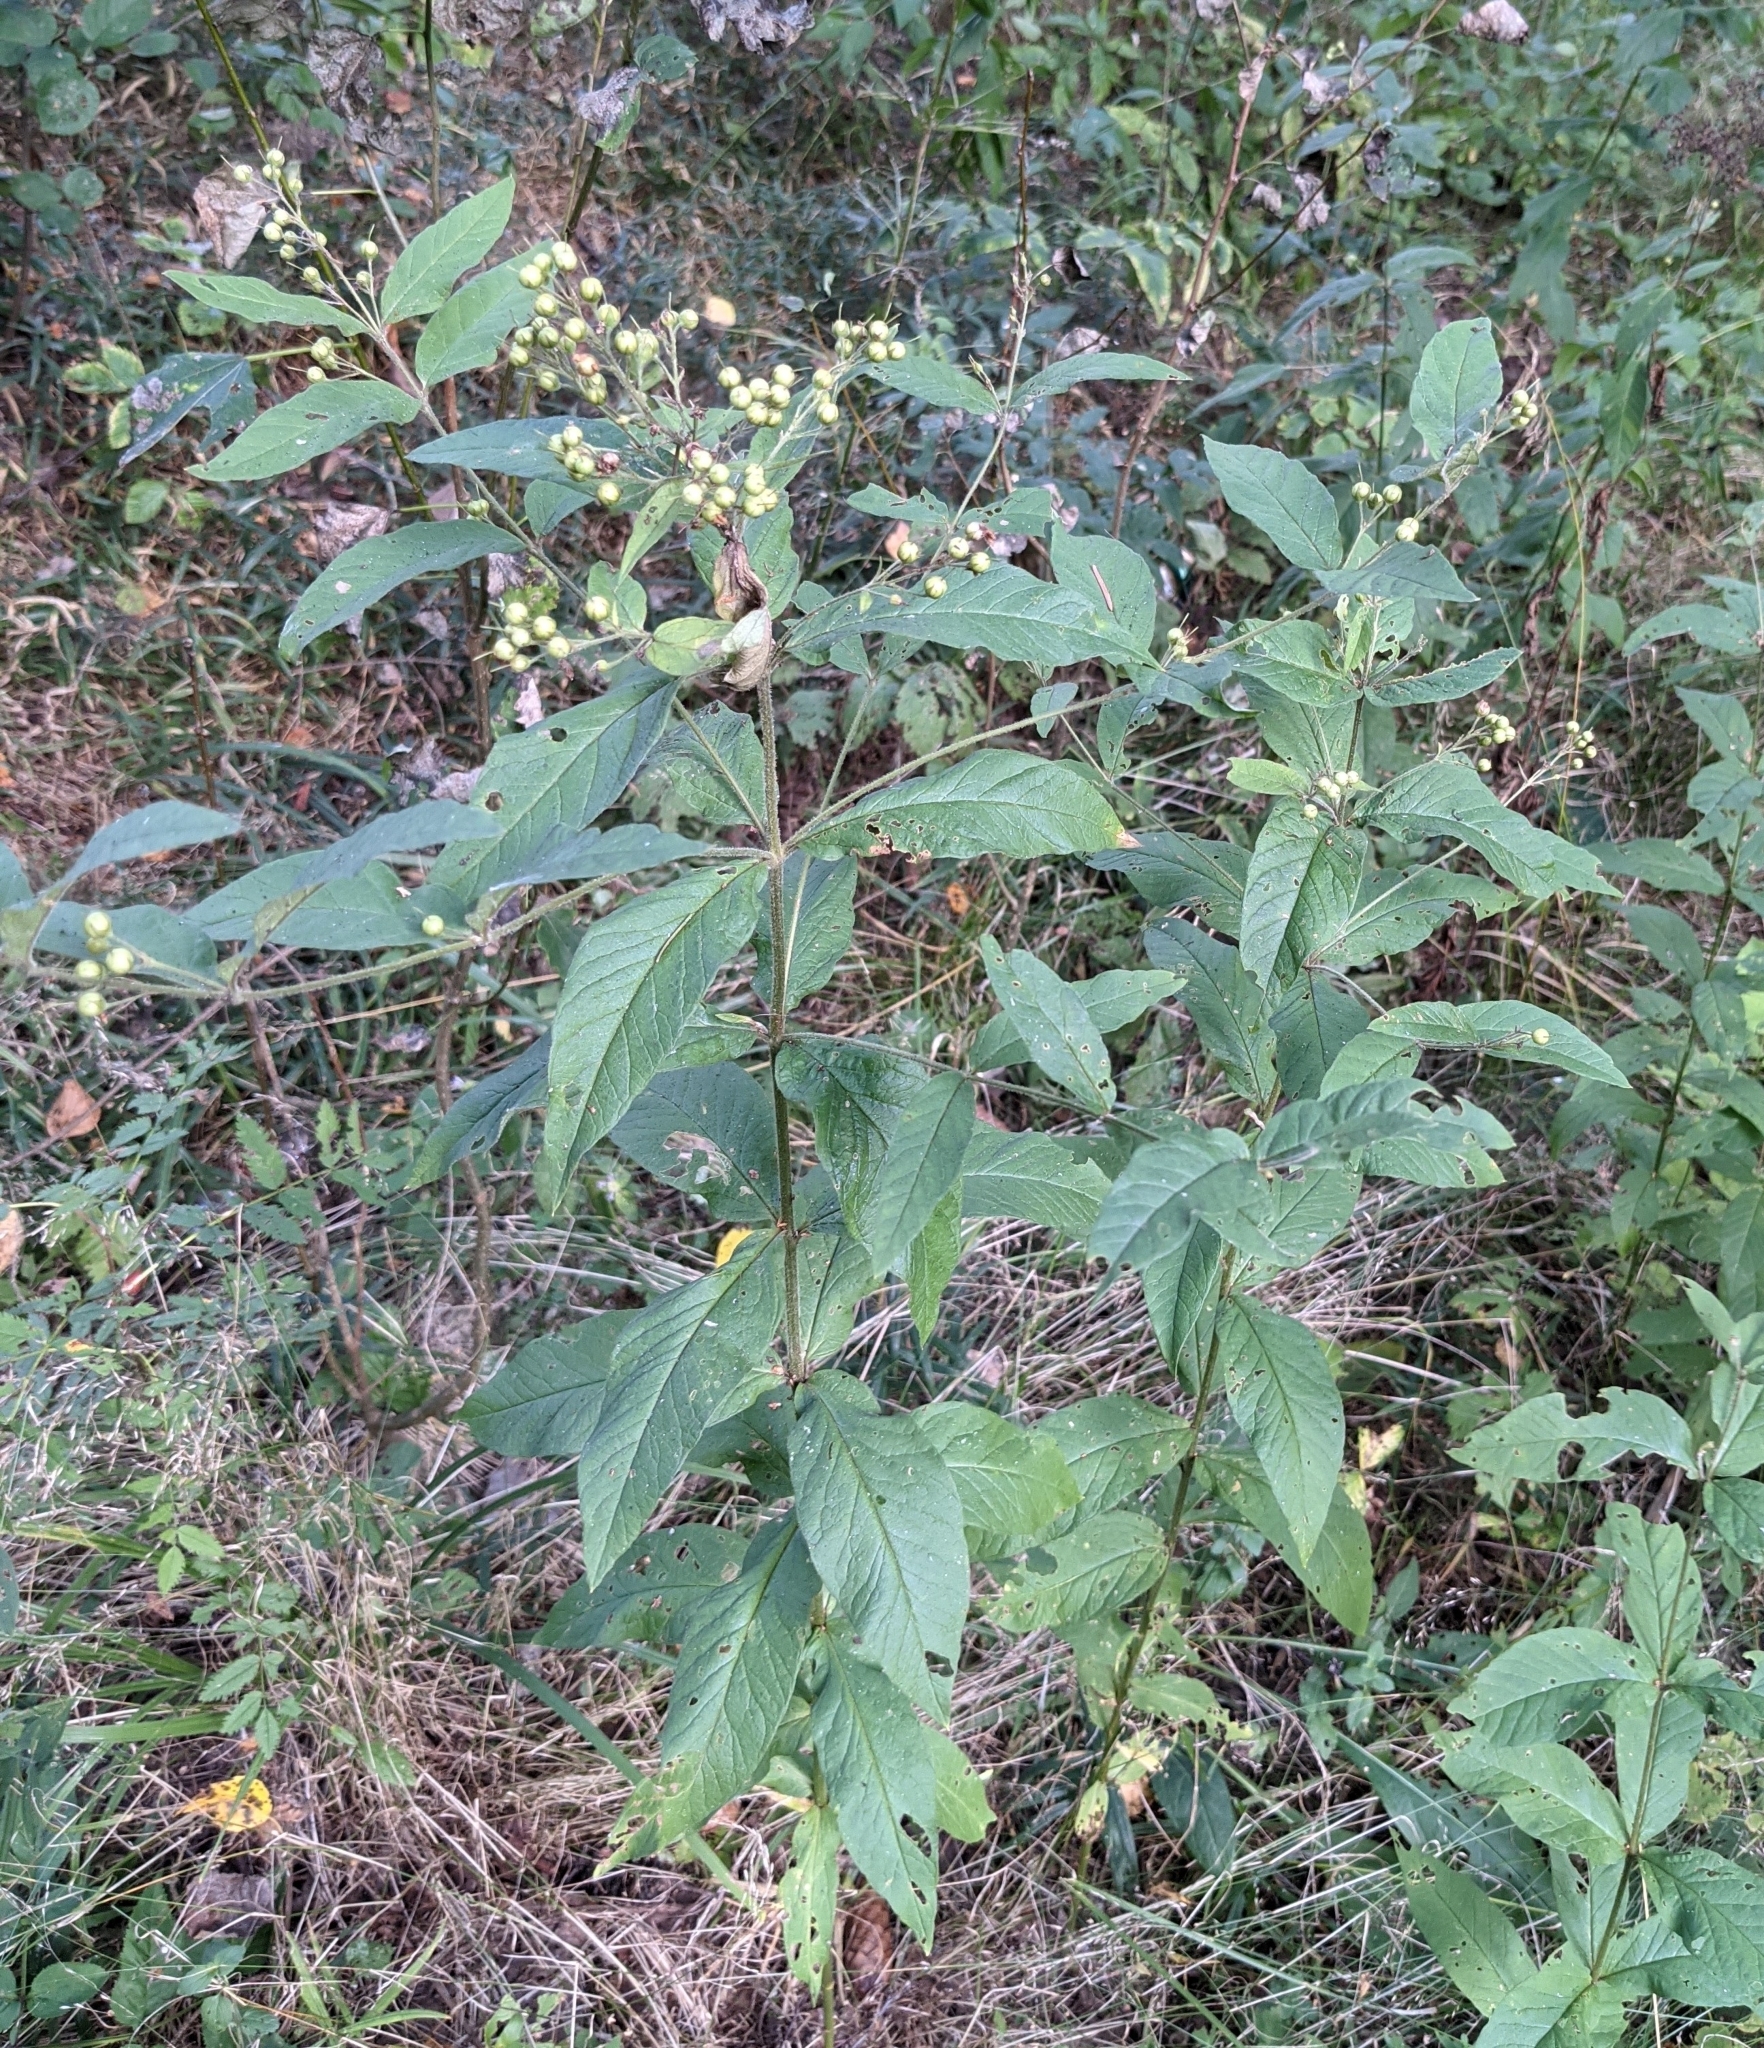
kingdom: Plantae
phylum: Tracheophyta
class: Magnoliopsida
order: Ericales
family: Primulaceae
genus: Lysimachia
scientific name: Lysimachia vulgaris
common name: Yellow loosestrife
